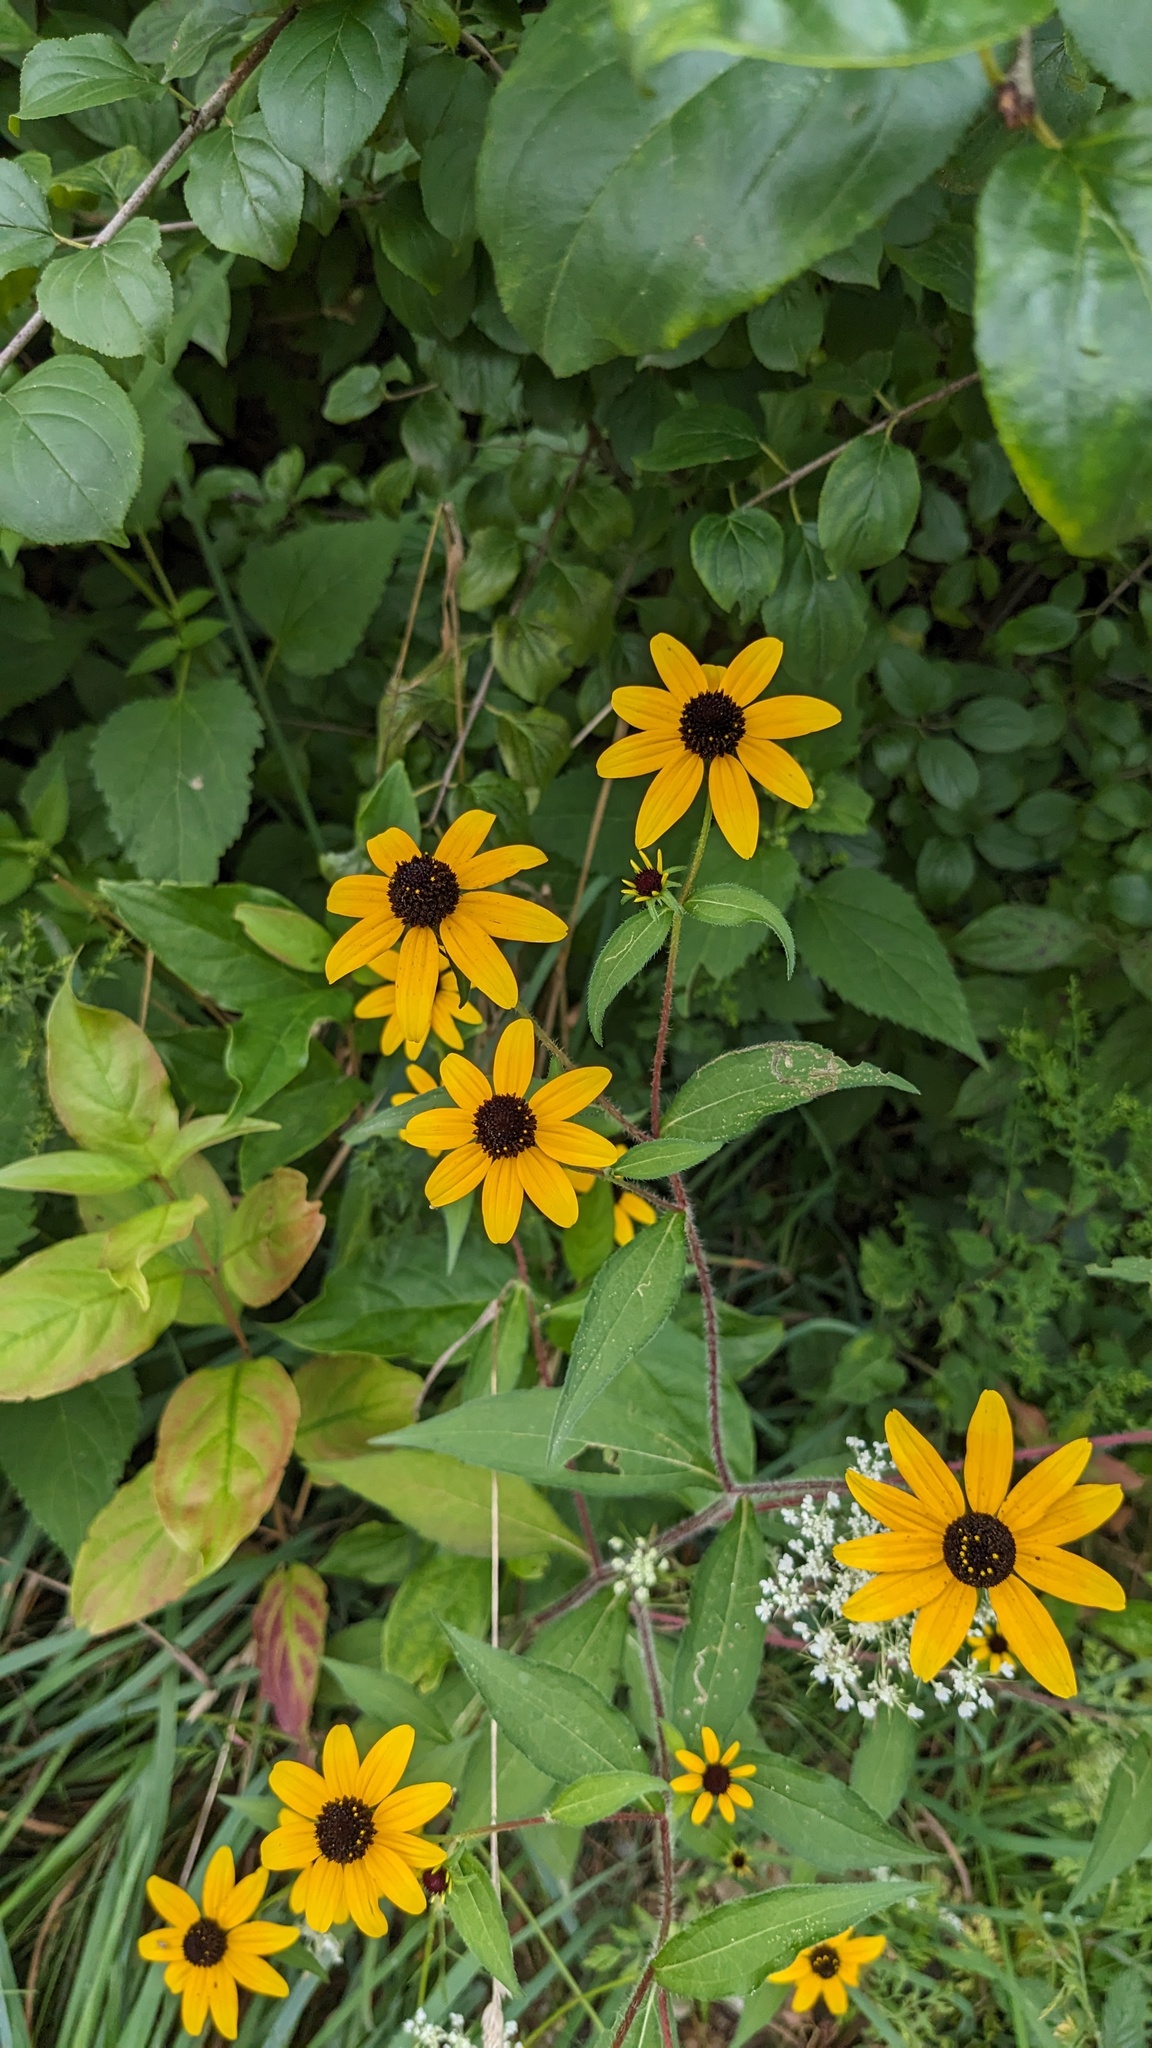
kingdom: Plantae
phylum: Tracheophyta
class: Magnoliopsida
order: Asterales
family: Asteraceae
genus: Rudbeckia
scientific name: Rudbeckia triloba
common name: Thin-leaved coneflower
